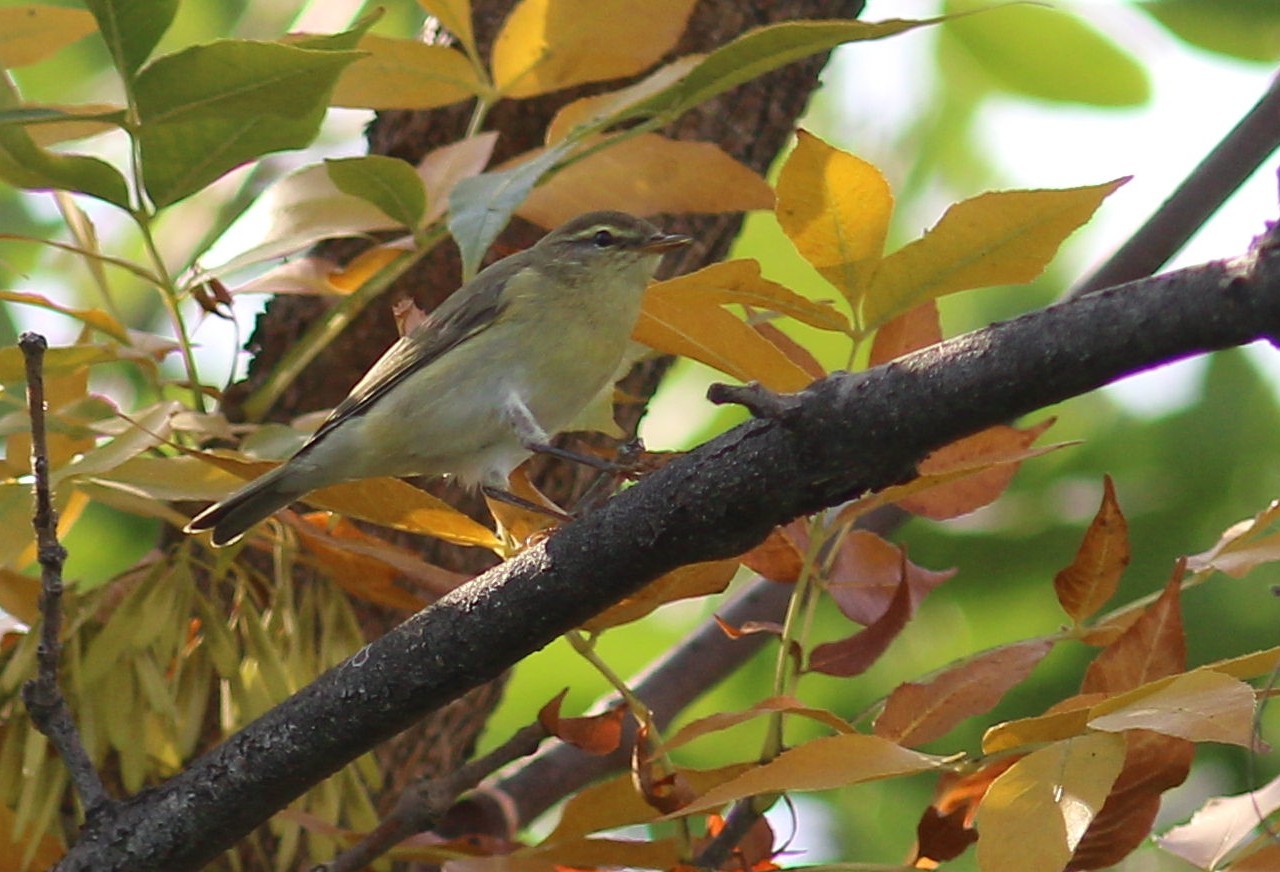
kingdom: Animalia
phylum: Chordata
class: Aves
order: Passeriformes
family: Phylloscopidae
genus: Phylloscopus
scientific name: Phylloscopus trochilus
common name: Willow warbler
